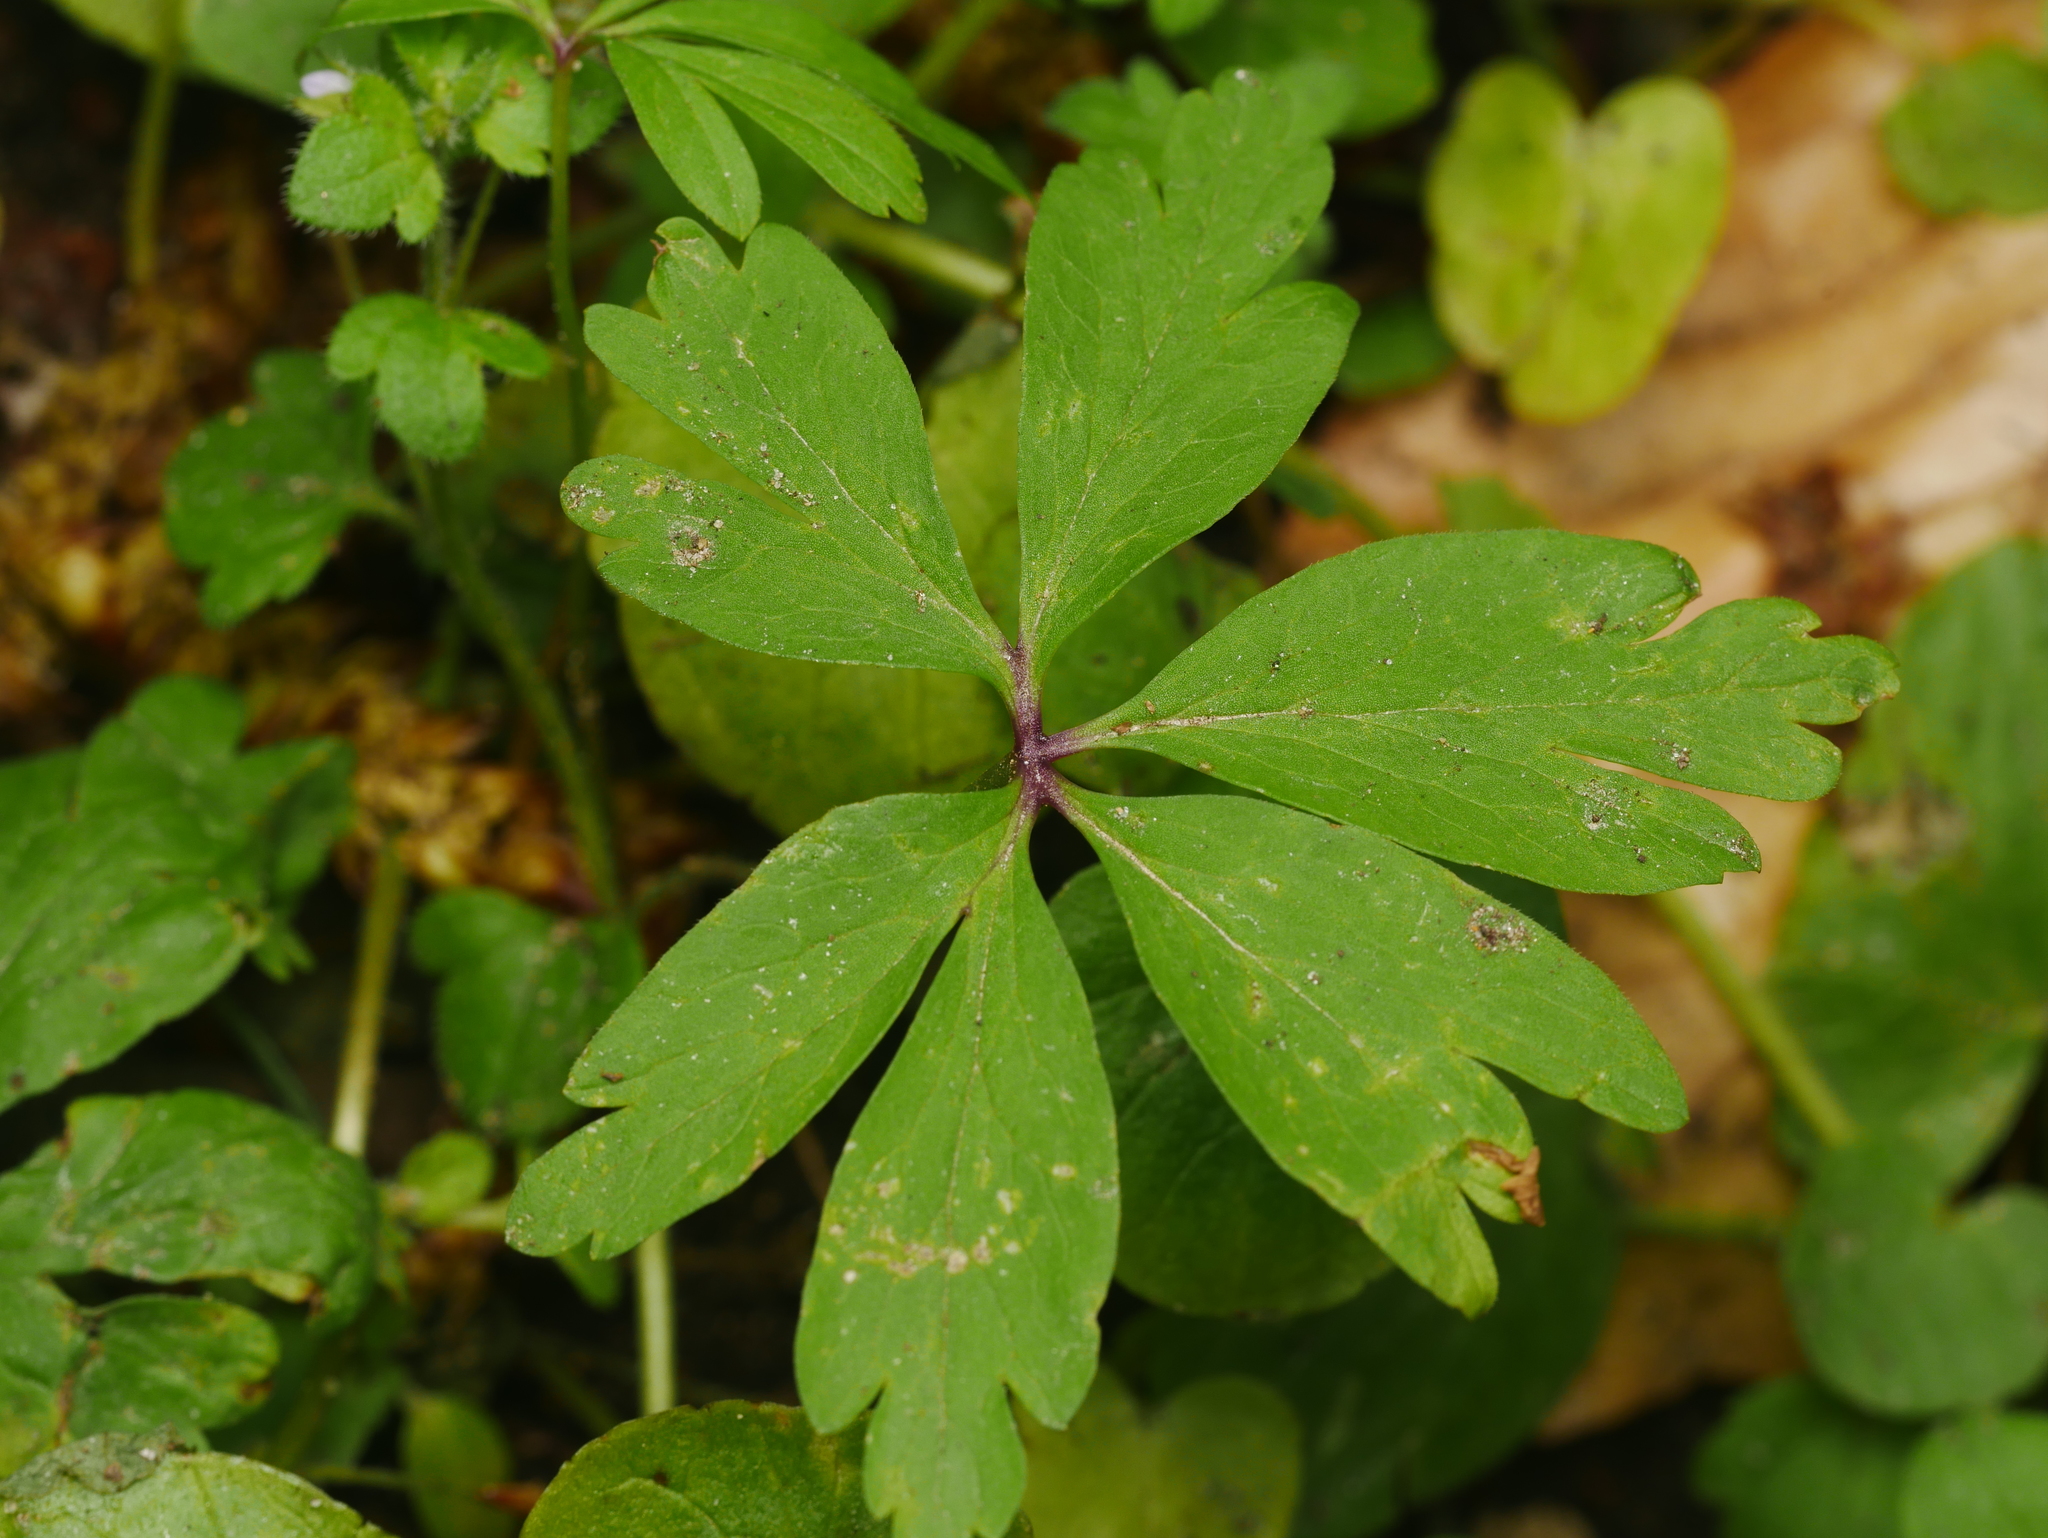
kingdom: Plantae
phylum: Tracheophyta
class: Magnoliopsida
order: Ranunculales
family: Ranunculaceae
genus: Anemone
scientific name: Anemone nemorosa
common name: Wood anemone
